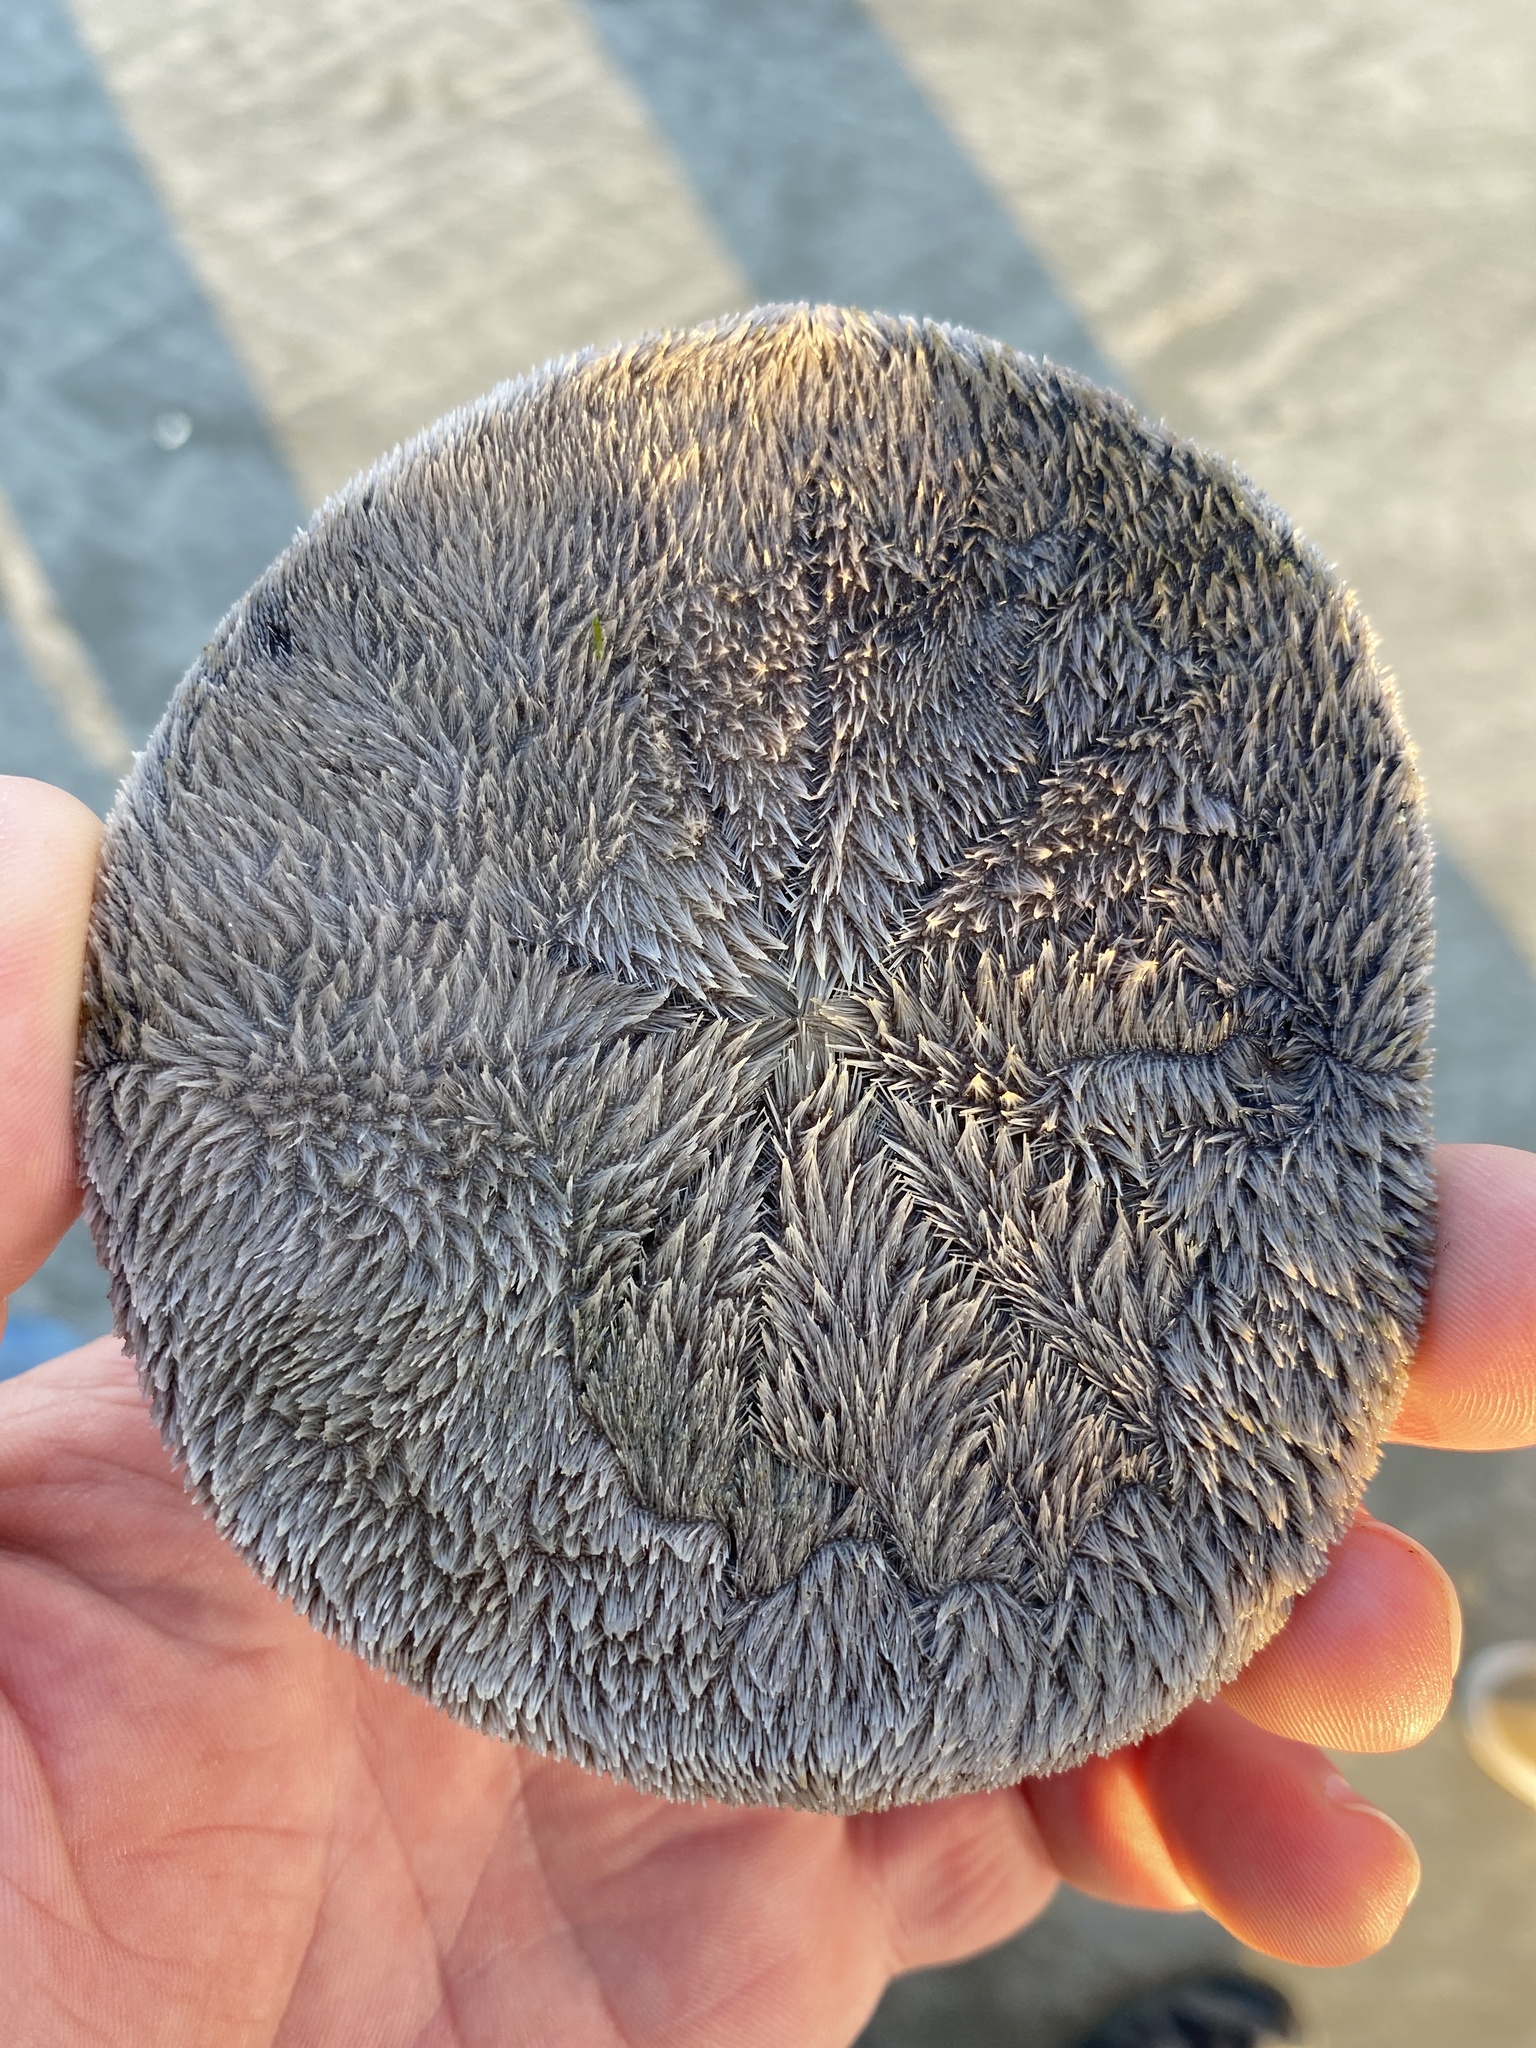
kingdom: Animalia
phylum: Echinodermata
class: Echinoidea
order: Echinolampadacea
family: Dendrasteridae
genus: Dendraster
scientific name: Dendraster excentricus
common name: Eccentric sand dollar sea urchin
